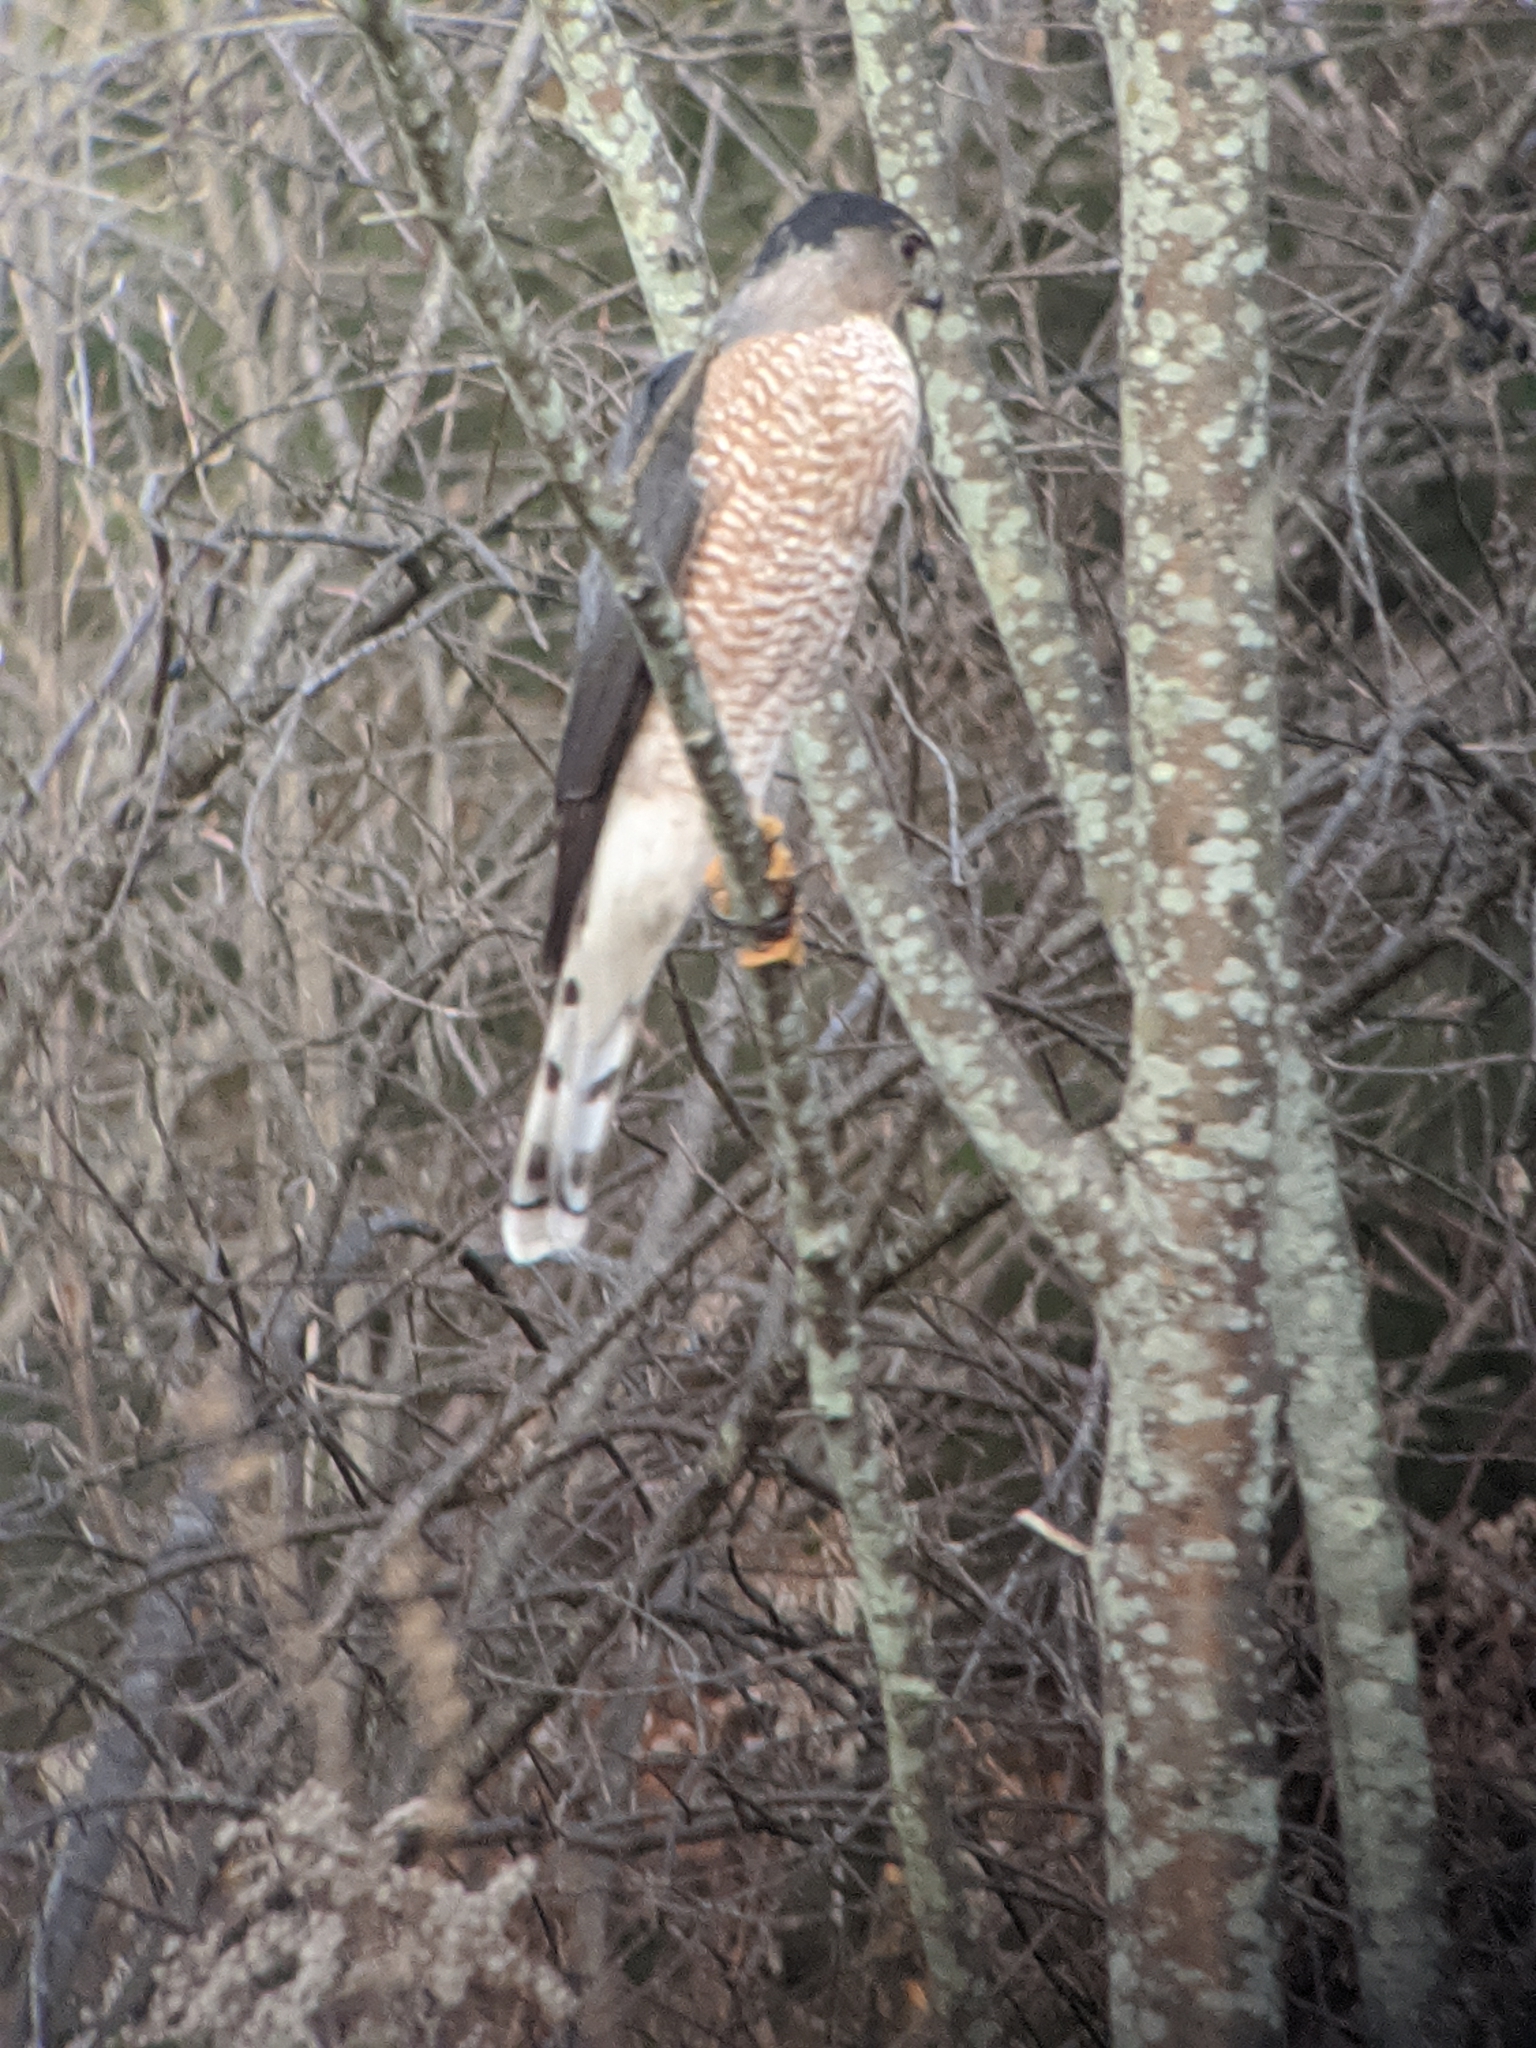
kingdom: Animalia
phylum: Chordata
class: Aves
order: Accipitriformes
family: Accipitridae
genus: Accipiter
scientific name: Accipiter cooperii
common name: Cooper's hawk
